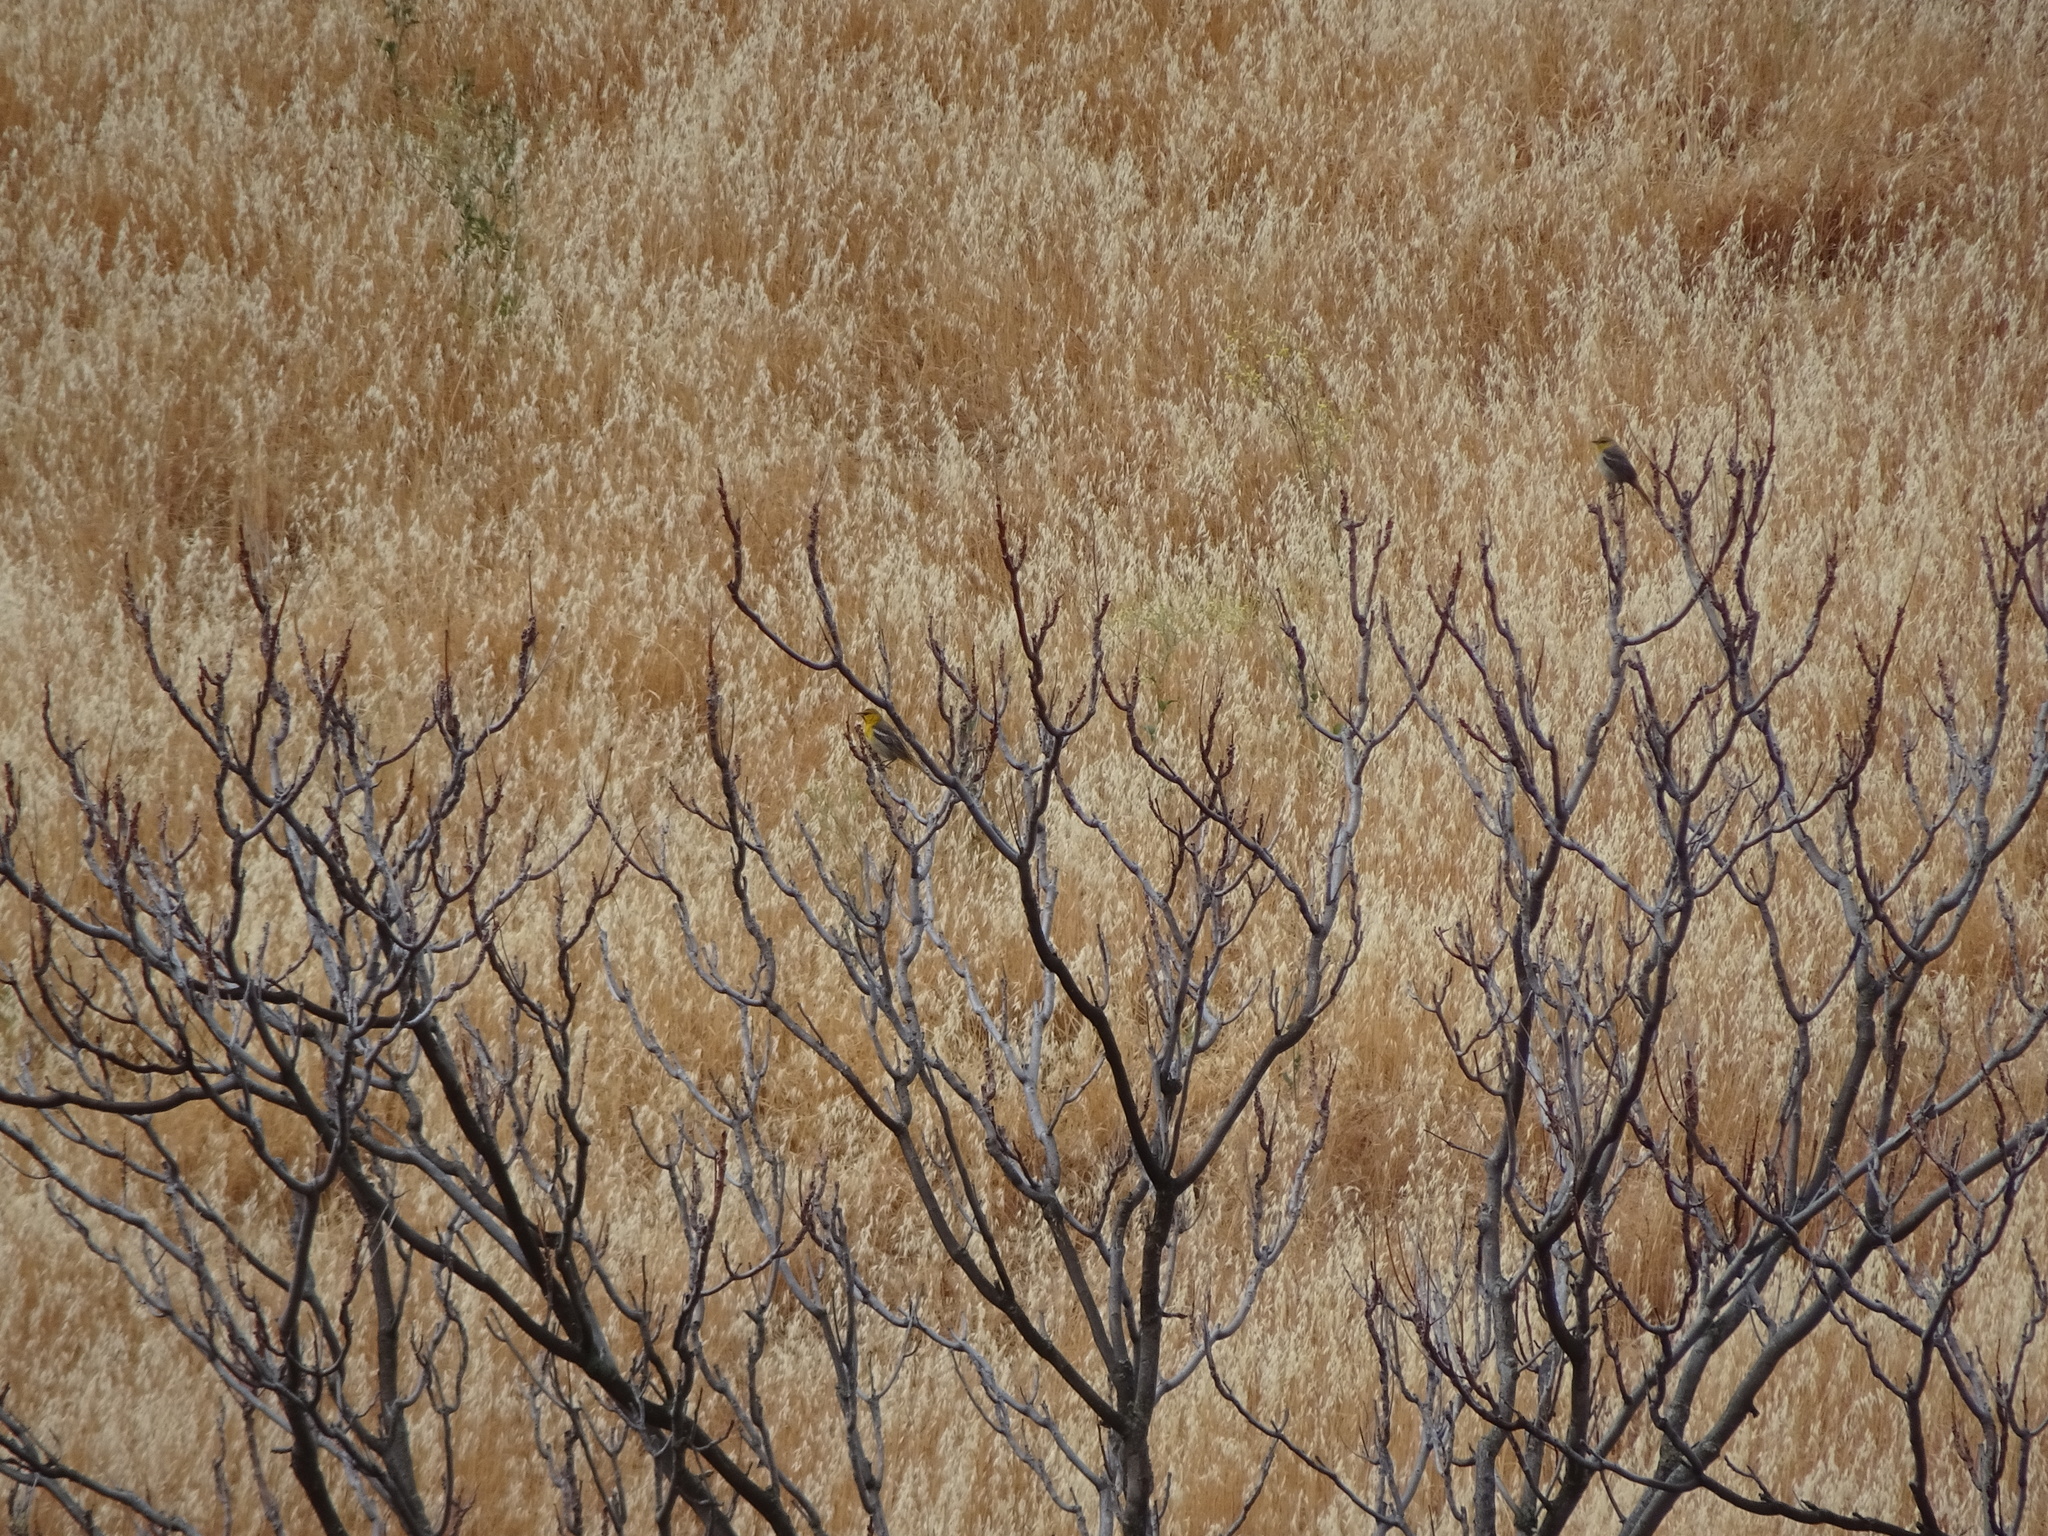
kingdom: Animalia
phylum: Chordata
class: Aves
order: Passeriformes
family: Icteridae
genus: Icterus
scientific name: Icterus bullockii
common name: Bullock's oriole
